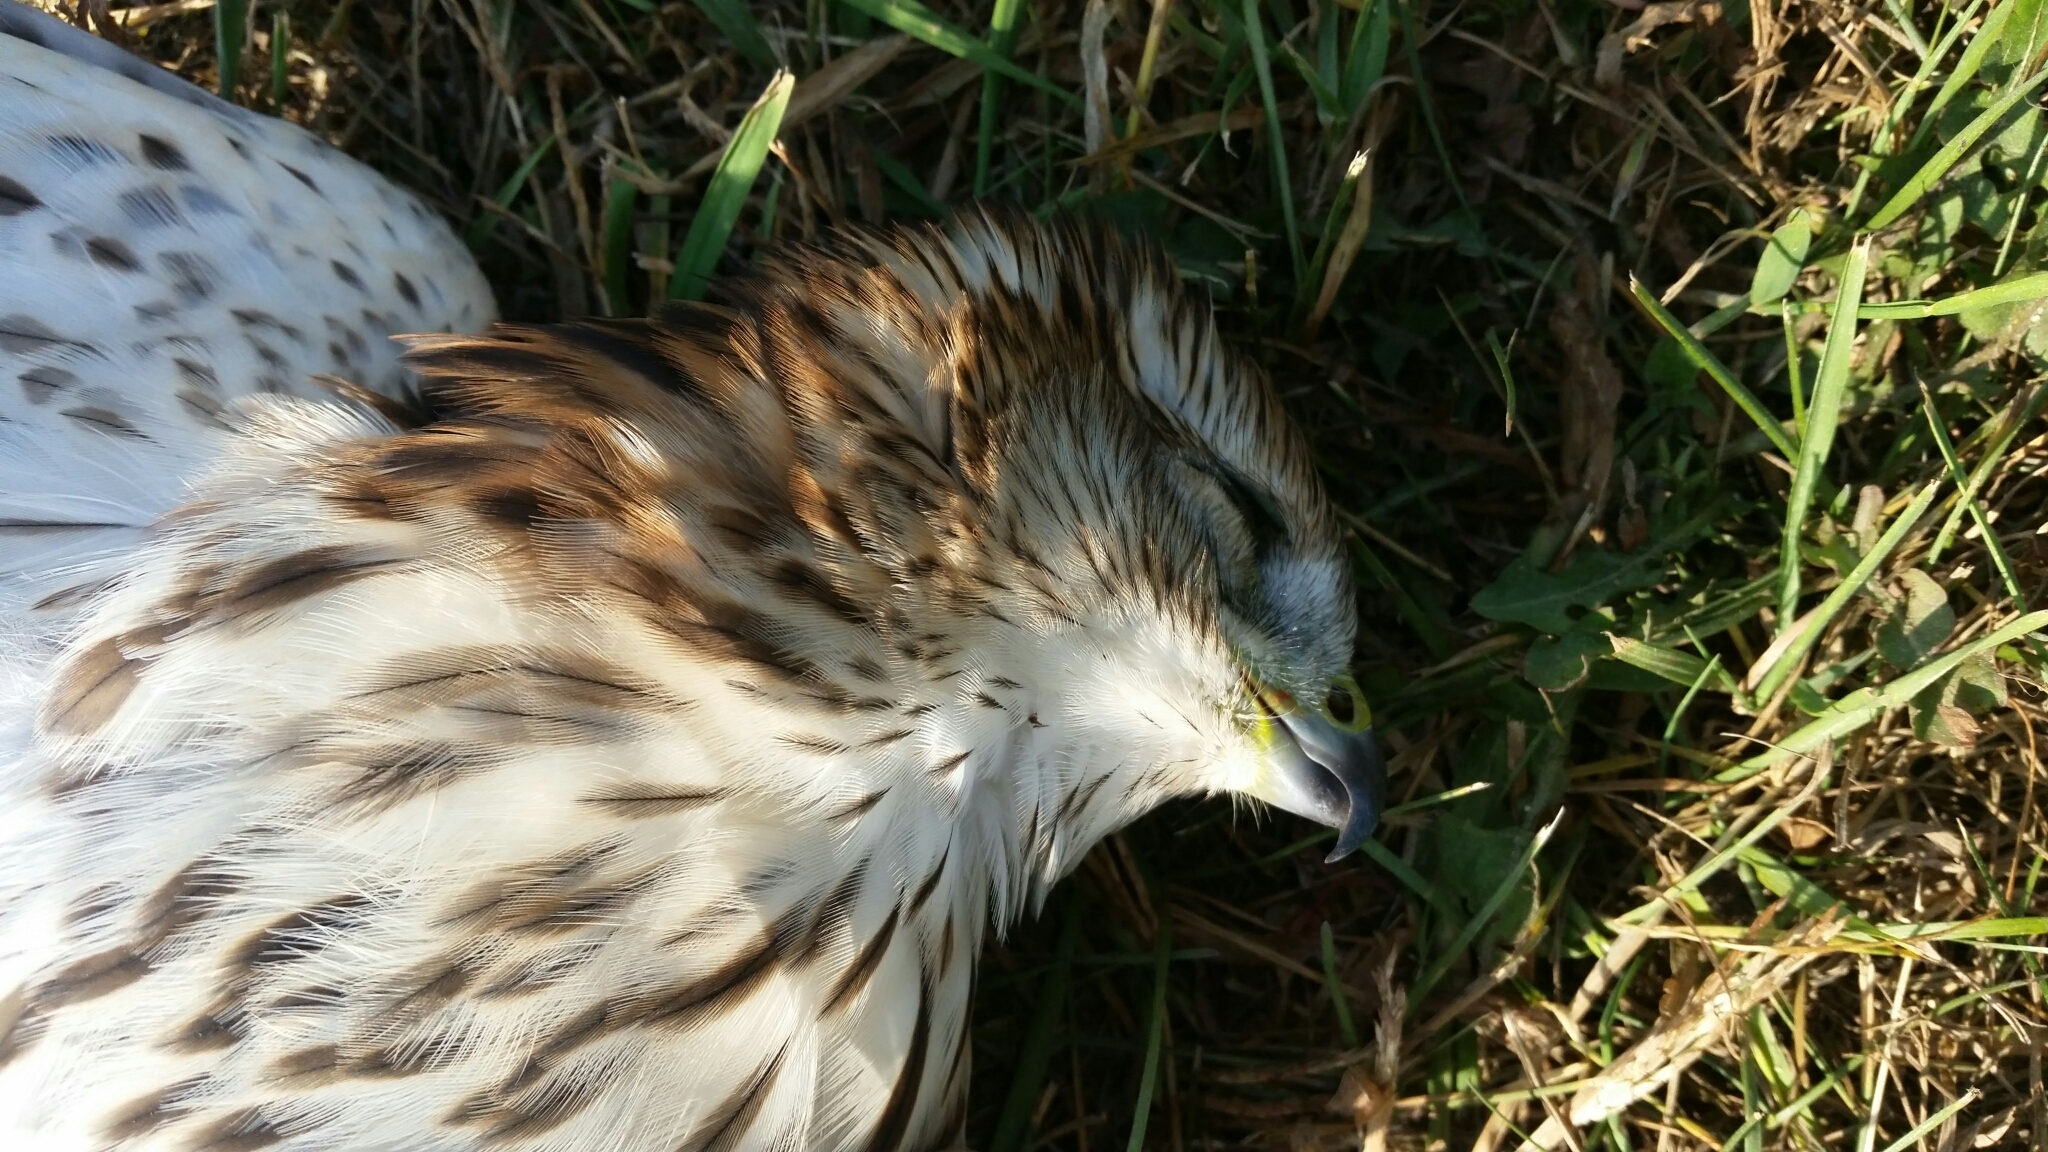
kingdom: Animalia
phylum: Chordata
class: Aves
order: Accipitriformes
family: Accipitridae
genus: Accipiter
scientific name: Accipiter cooperii
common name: Cooper's hawk
